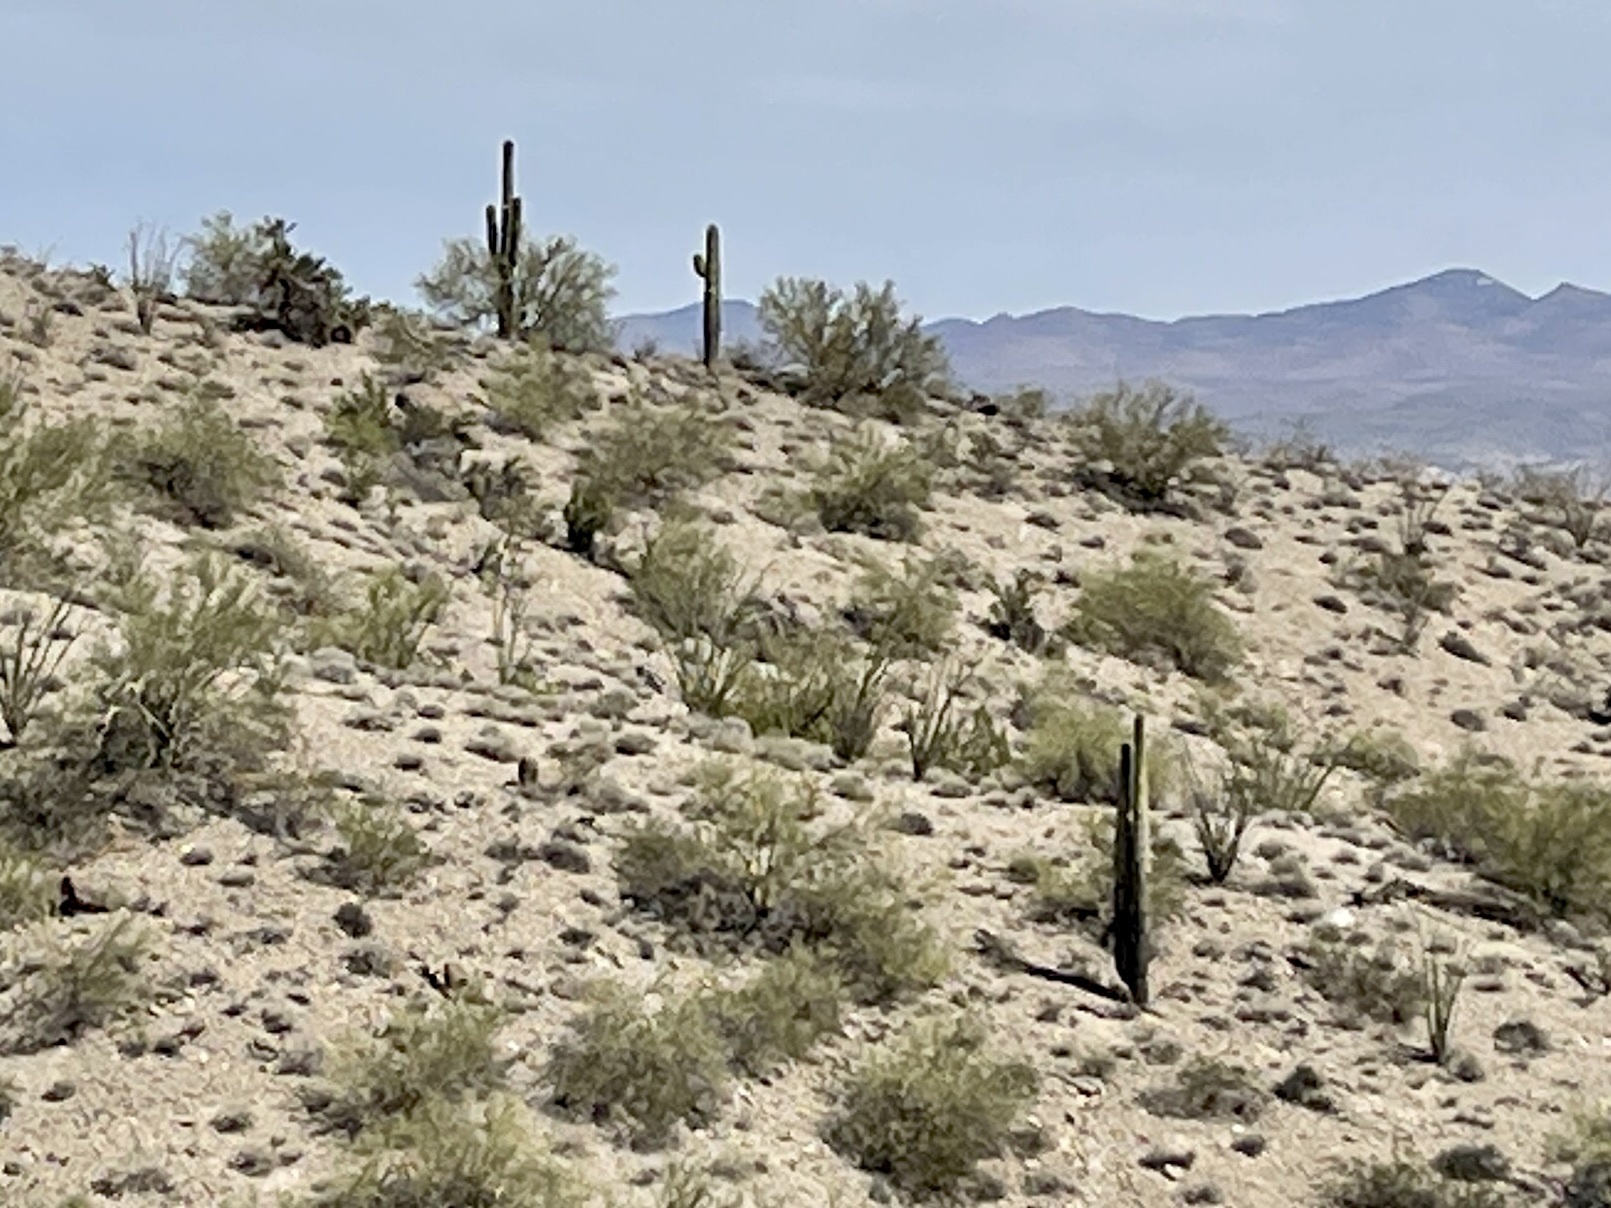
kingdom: Plantae
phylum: Tracheophyta
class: Magnoliopsida
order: Caryophyllales
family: Cactaceae
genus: Carnegiea
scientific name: Carnegiea gigantea
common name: Saguaro
